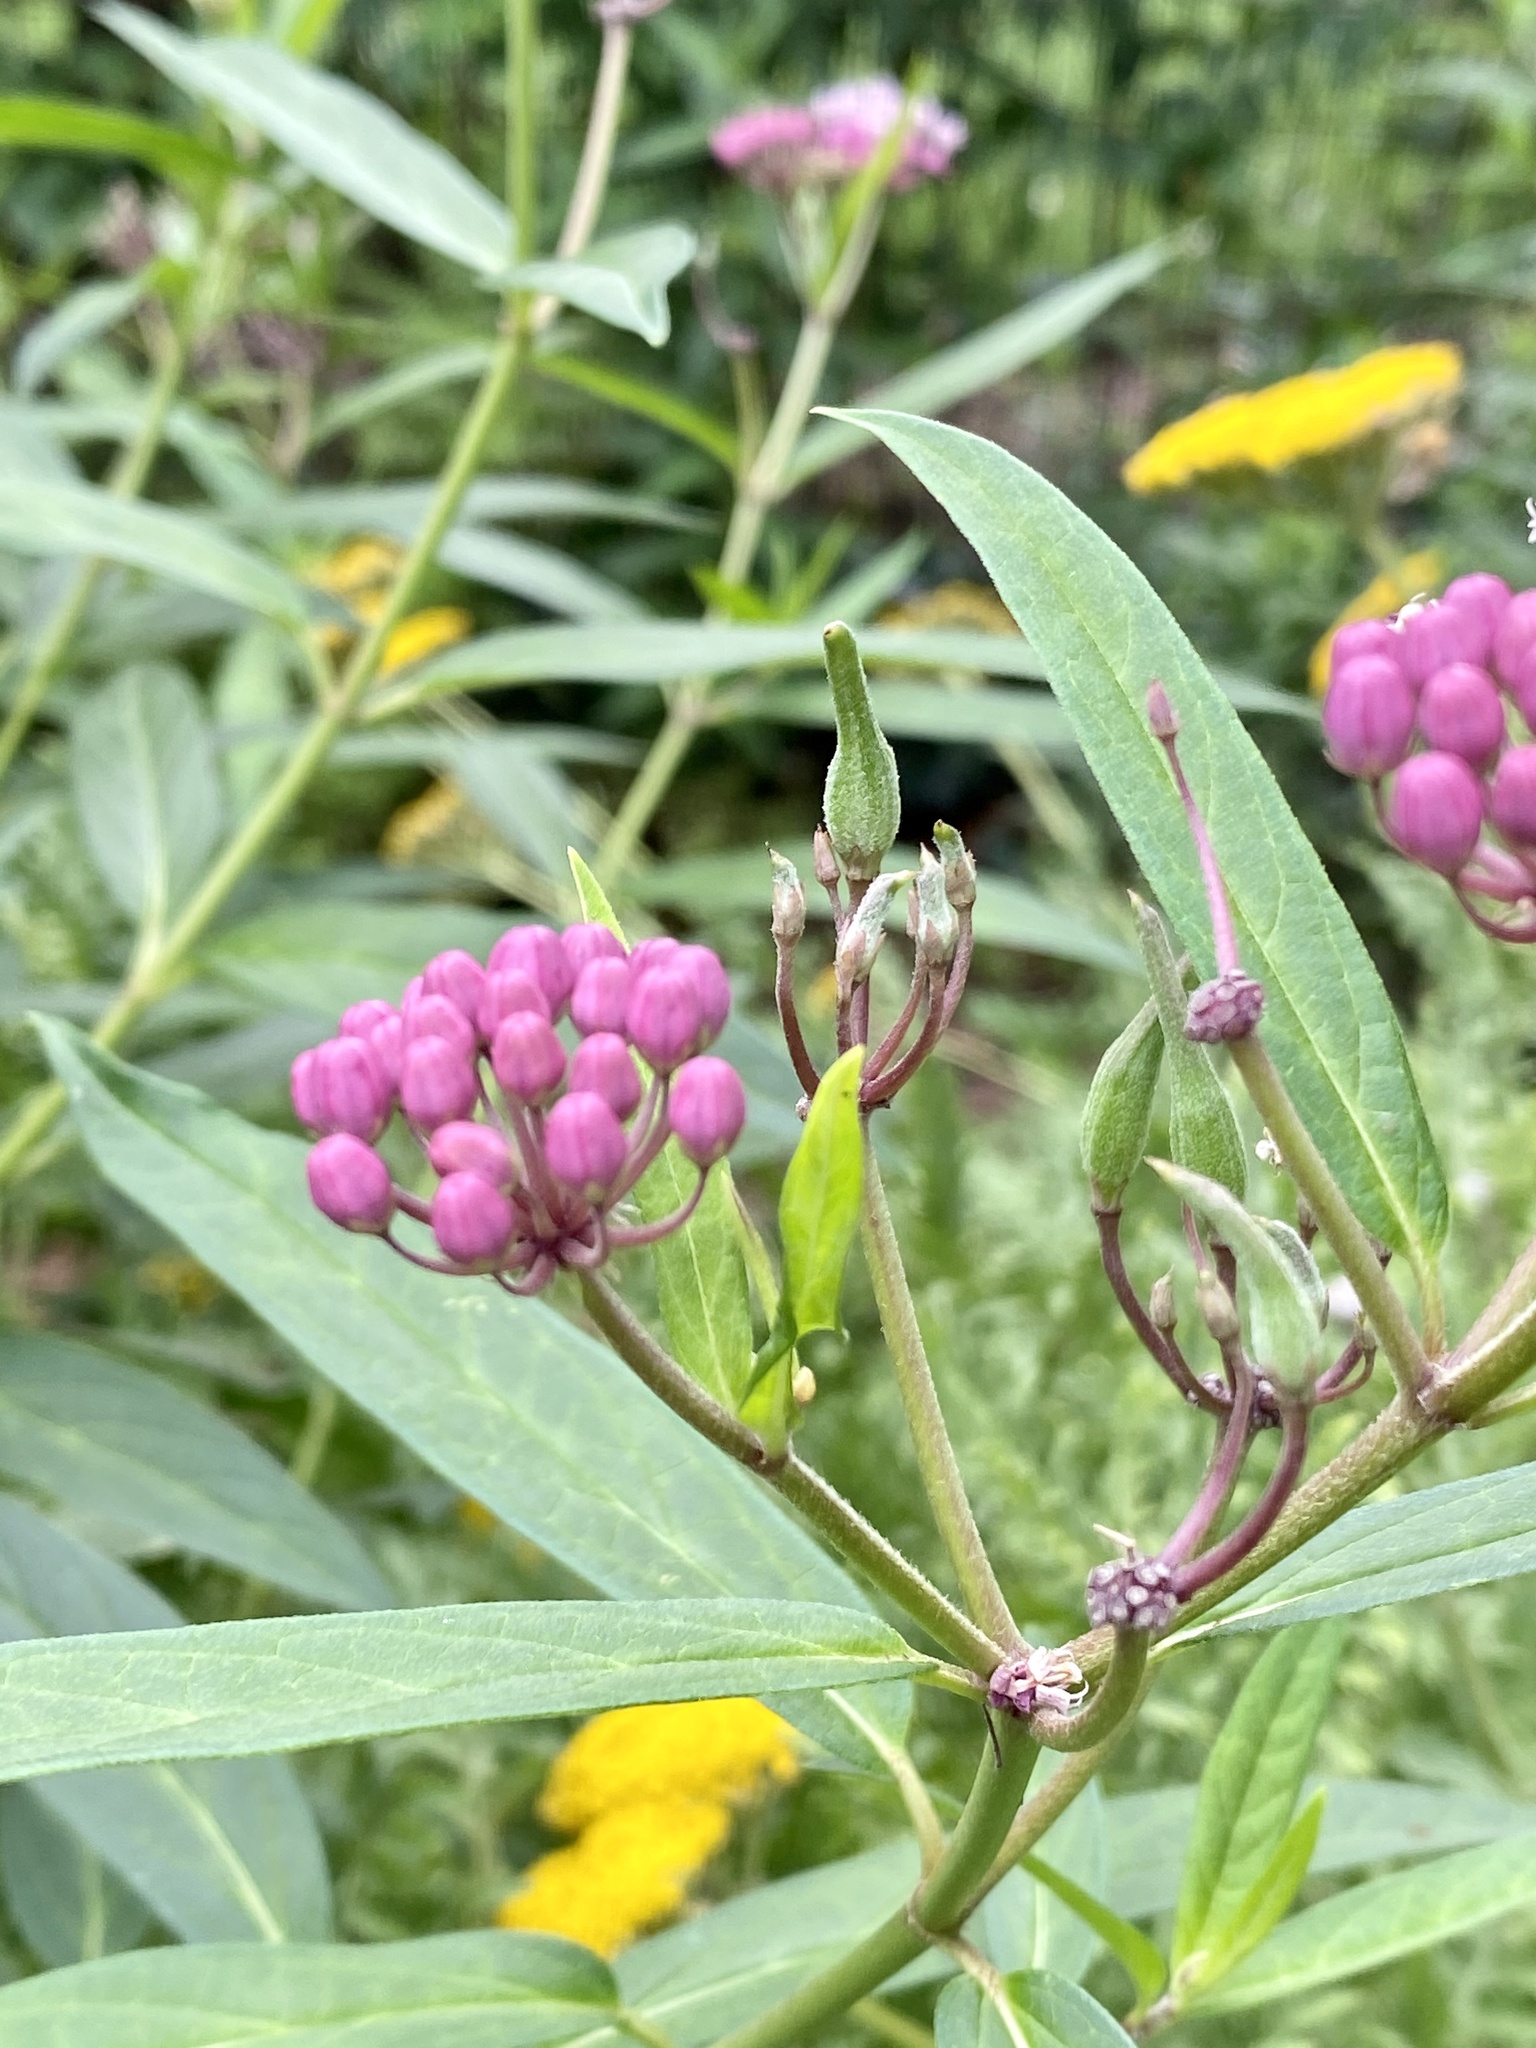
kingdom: Plantae
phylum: Tracheophyta
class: Magnoliopsida
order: Gentianales
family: Apocynaceae
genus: Asclepias
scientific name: Asclepias incarnata
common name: Swamp milkweed
